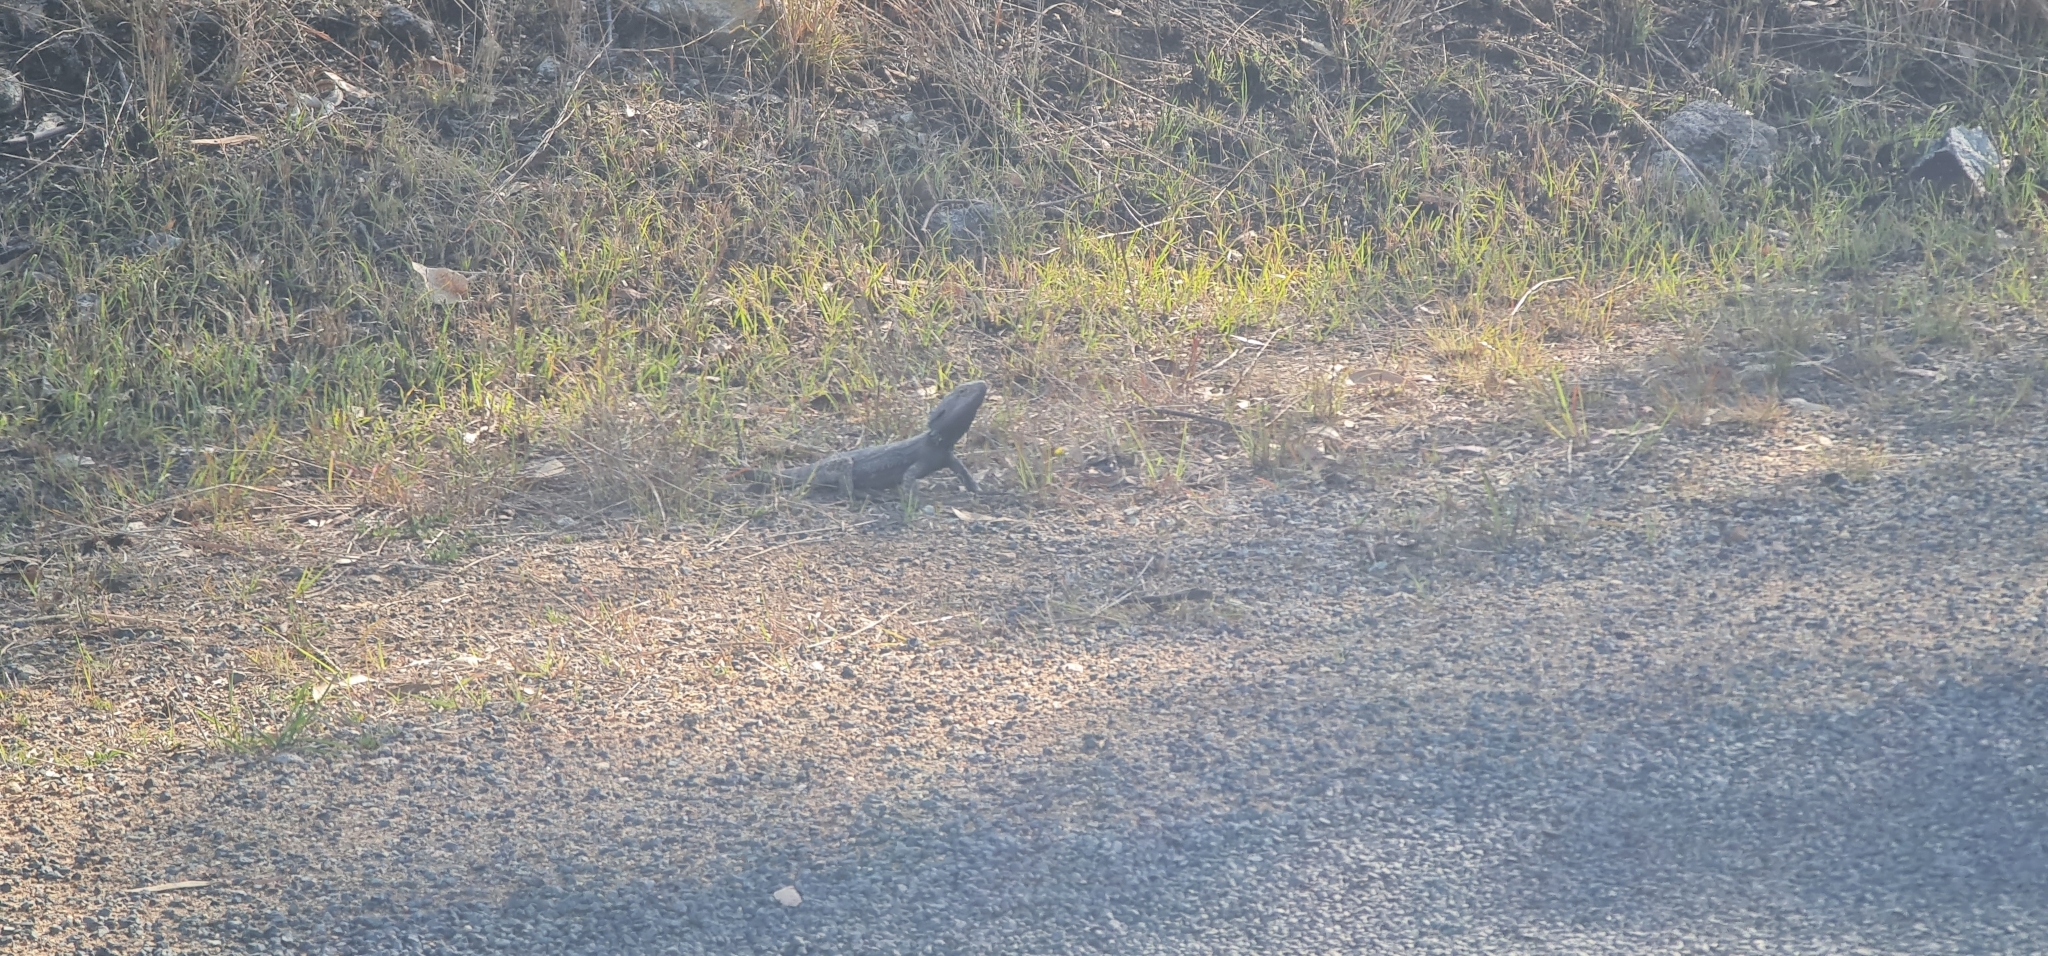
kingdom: Animalia
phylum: Chordata
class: Squamata
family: Agamidae
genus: Pogona
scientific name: Pogona barbata
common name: Bearded dragon
